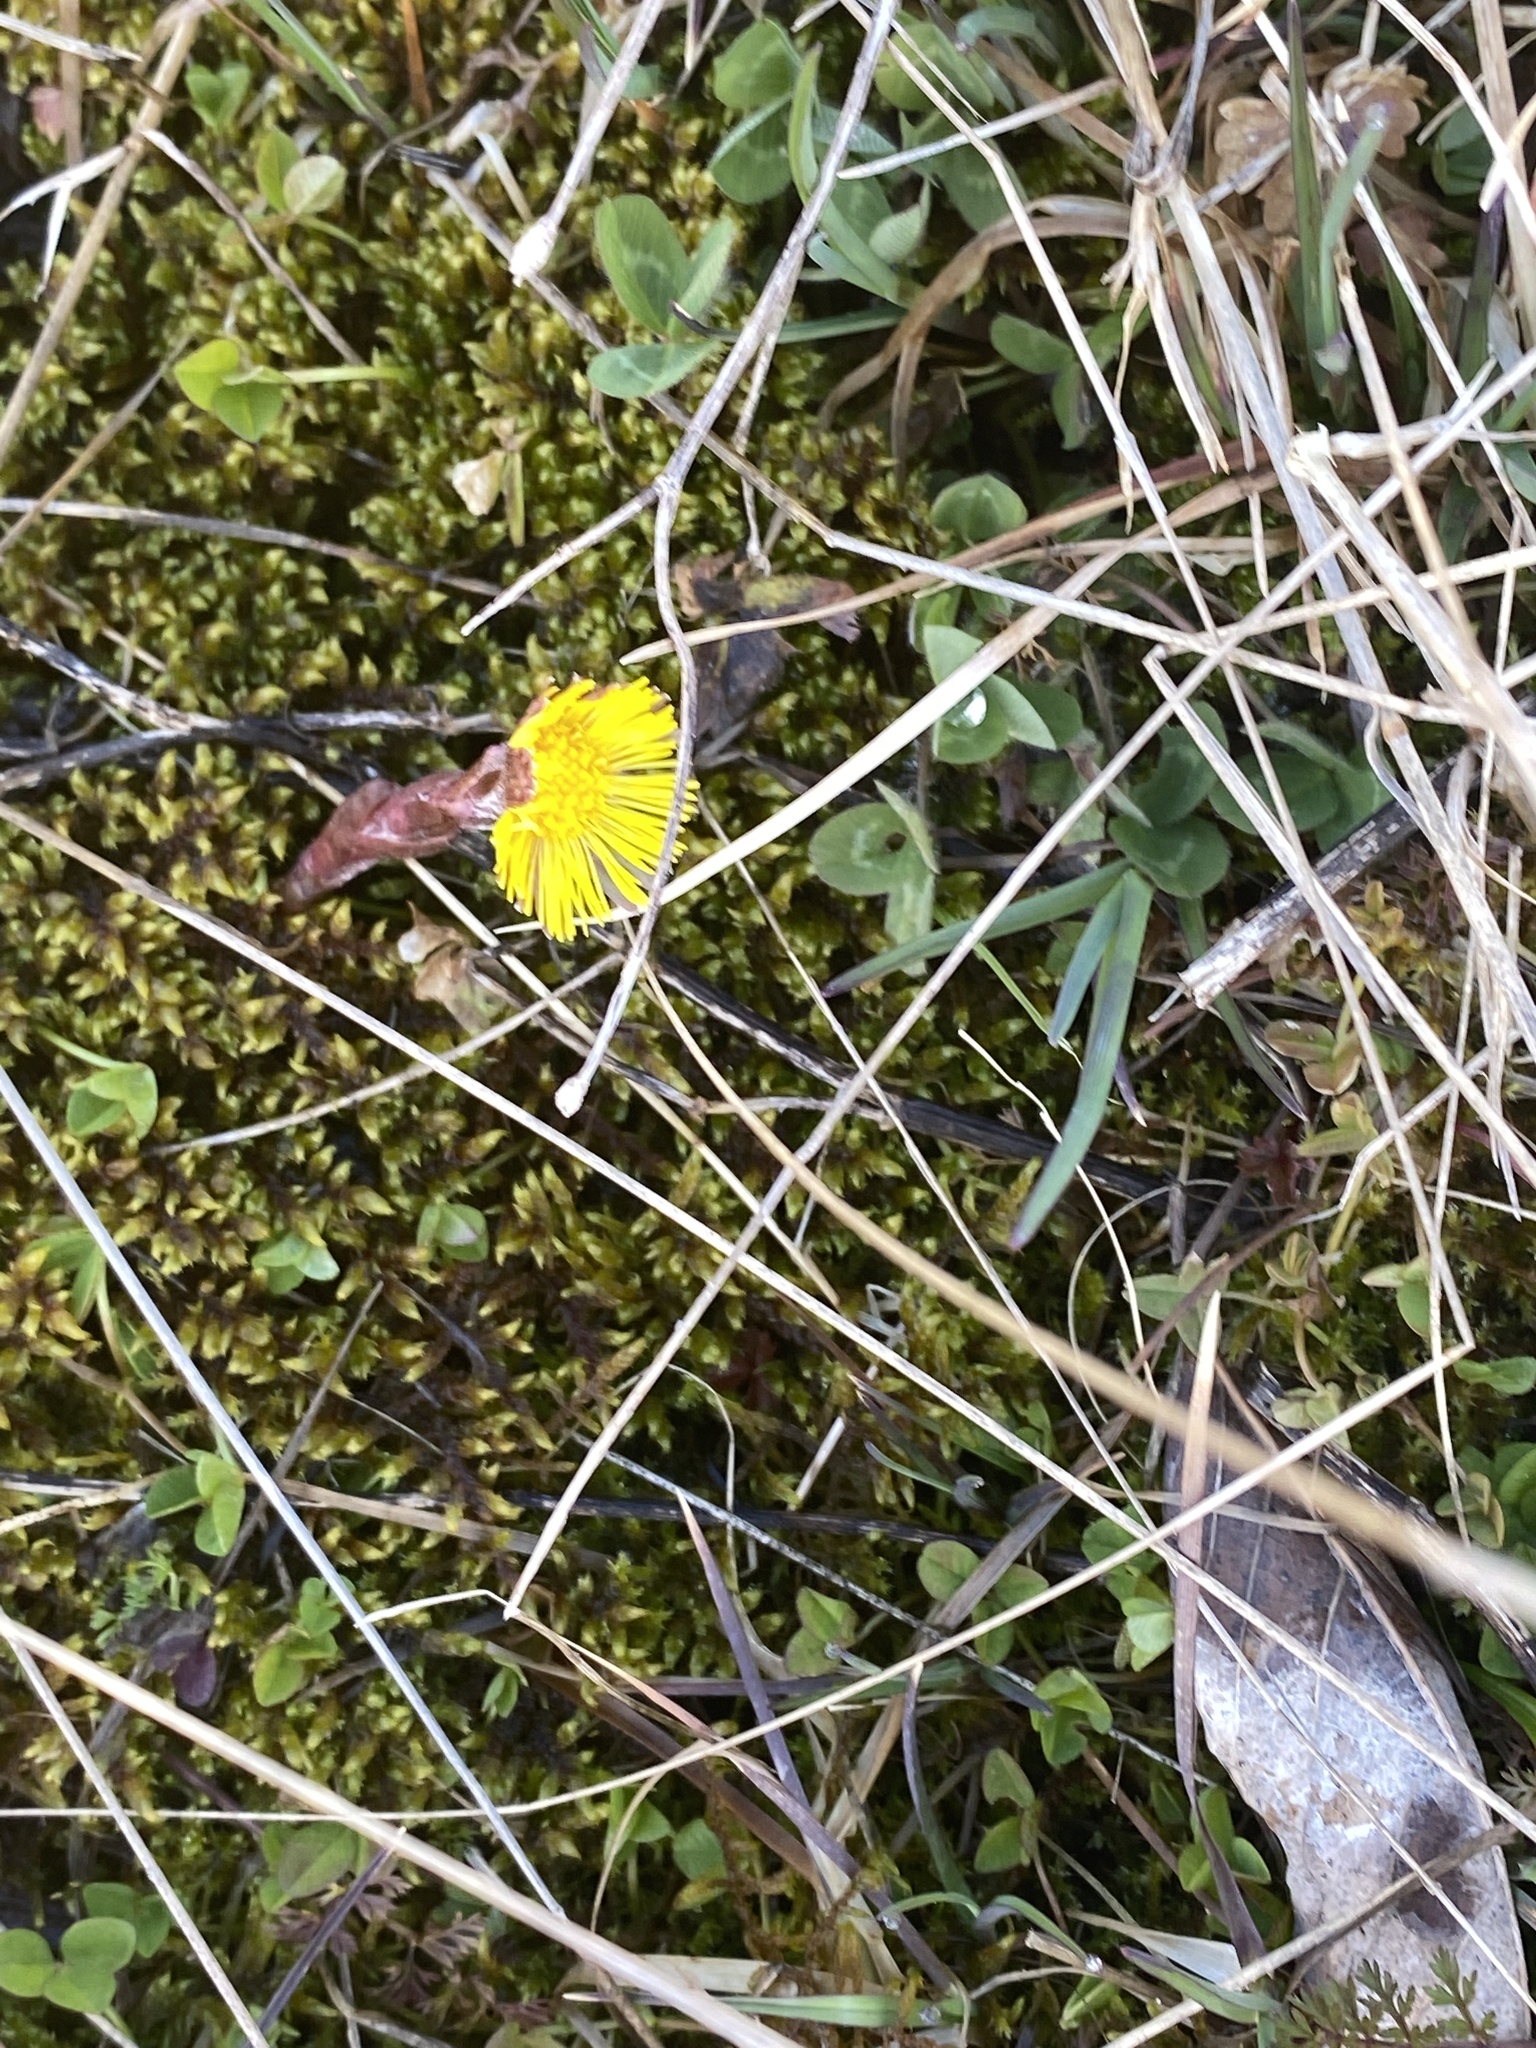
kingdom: Plantae
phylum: Tracheophyta
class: Magnoliopsida
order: Asterales
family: Asteraceae
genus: Tussilago
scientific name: Tussilago farfara
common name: Coltsfoot
